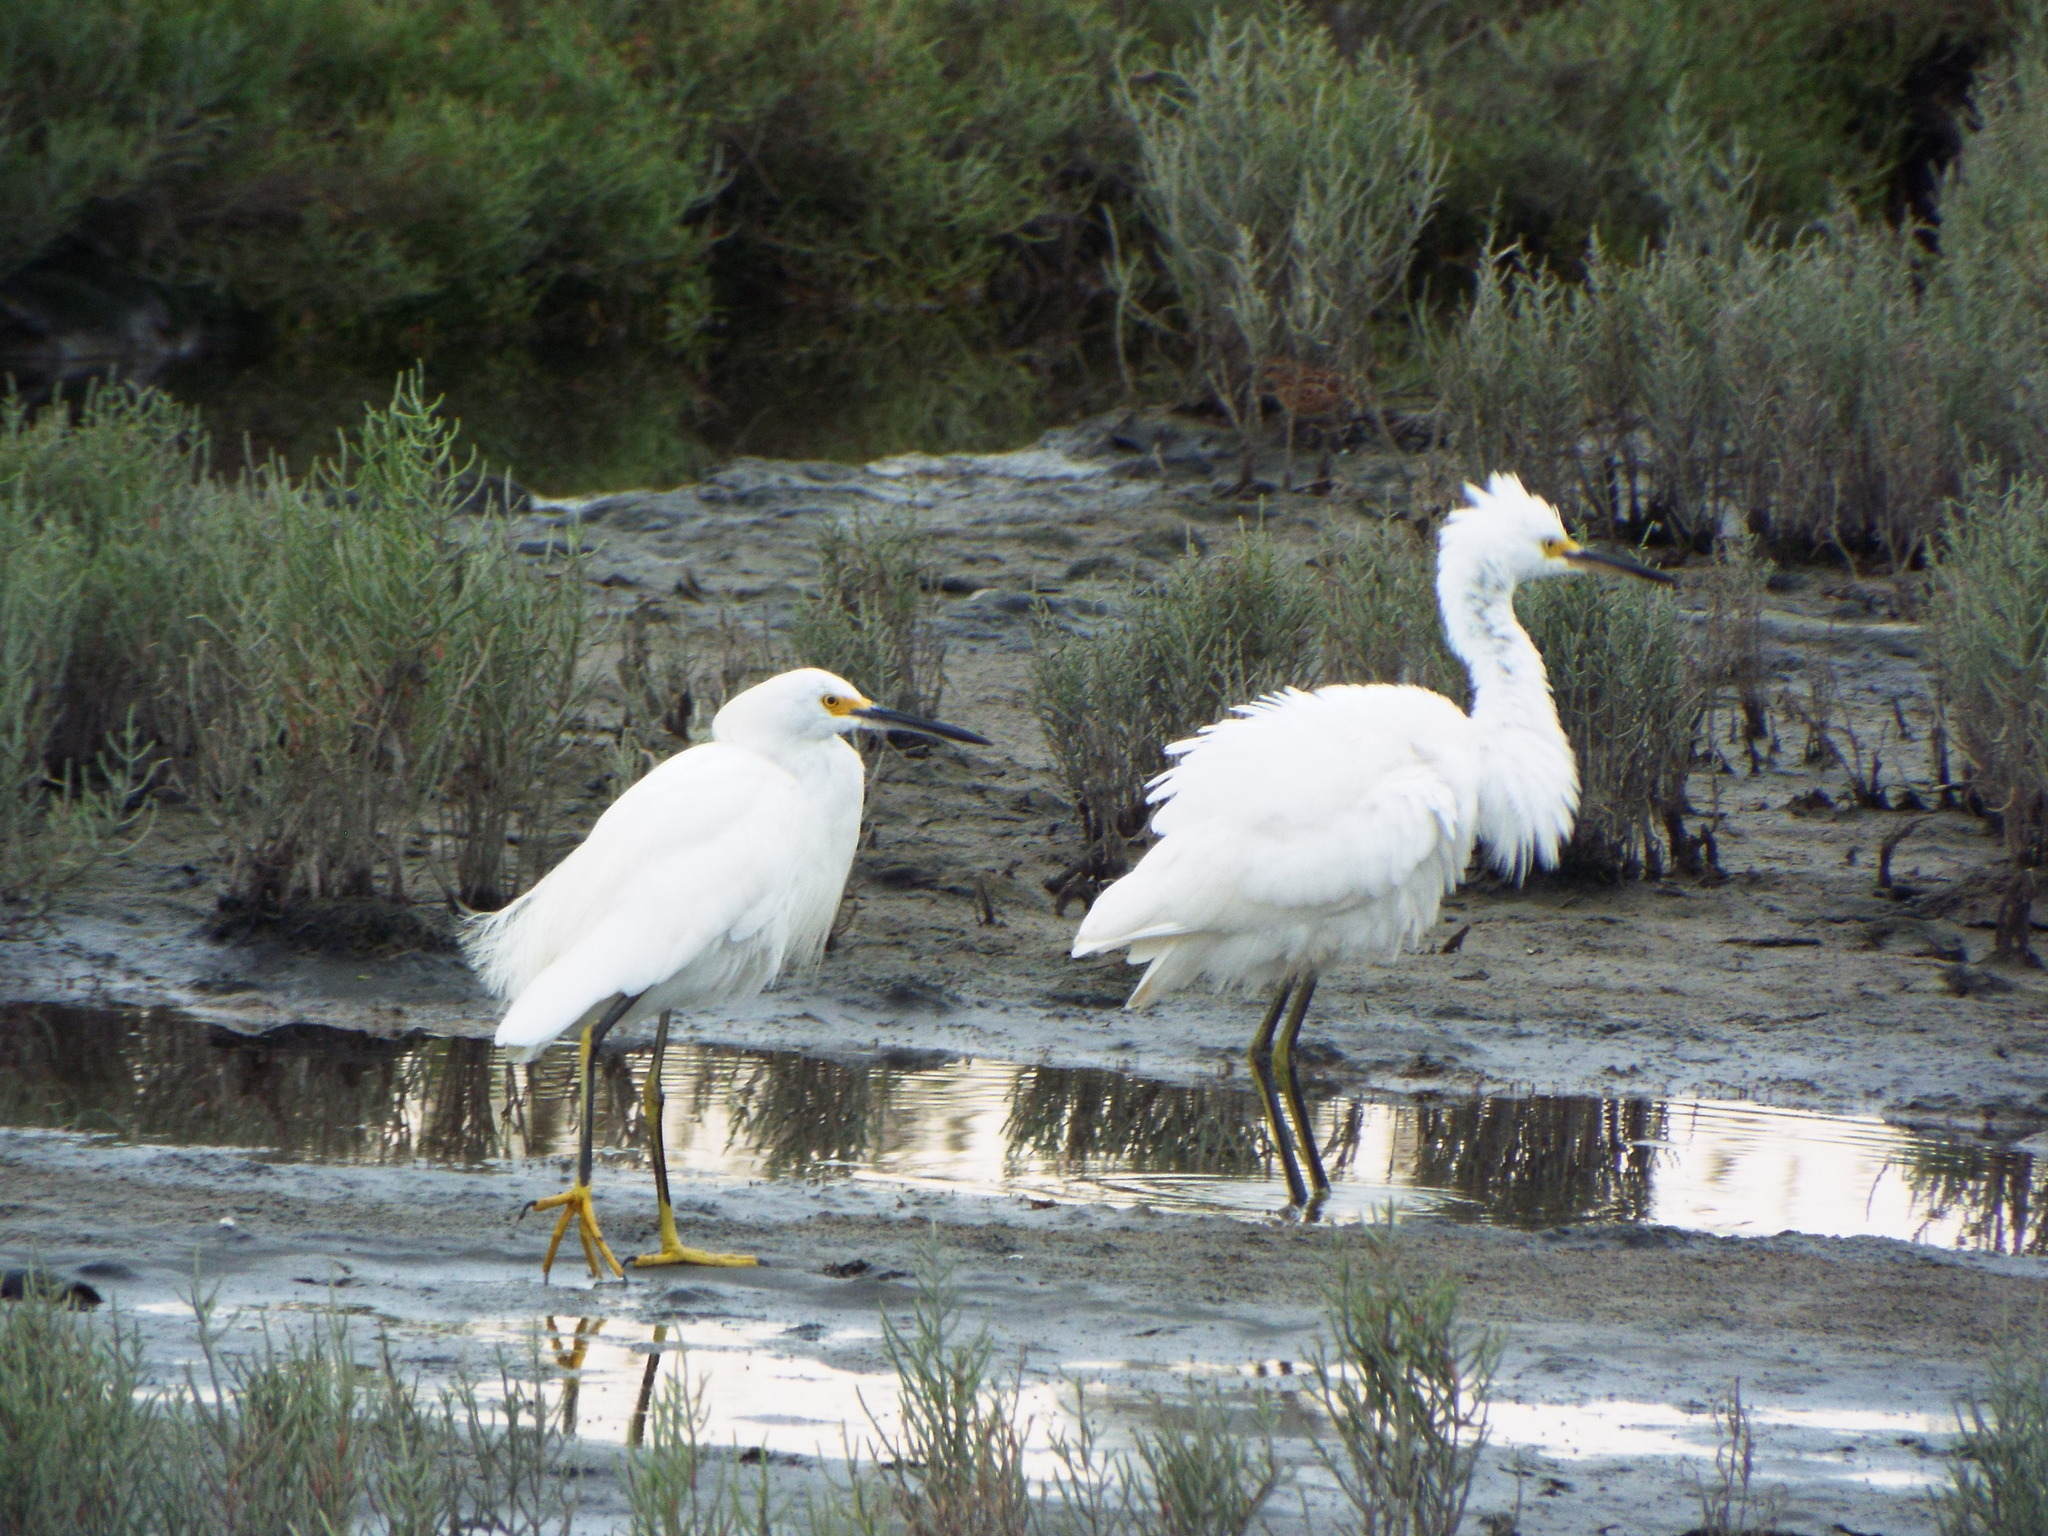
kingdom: Animalia
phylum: Chordata
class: Aves
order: Pelecaniformes
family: Ardeidae
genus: Egretta
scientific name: Egretta thula
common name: Snowy egret
